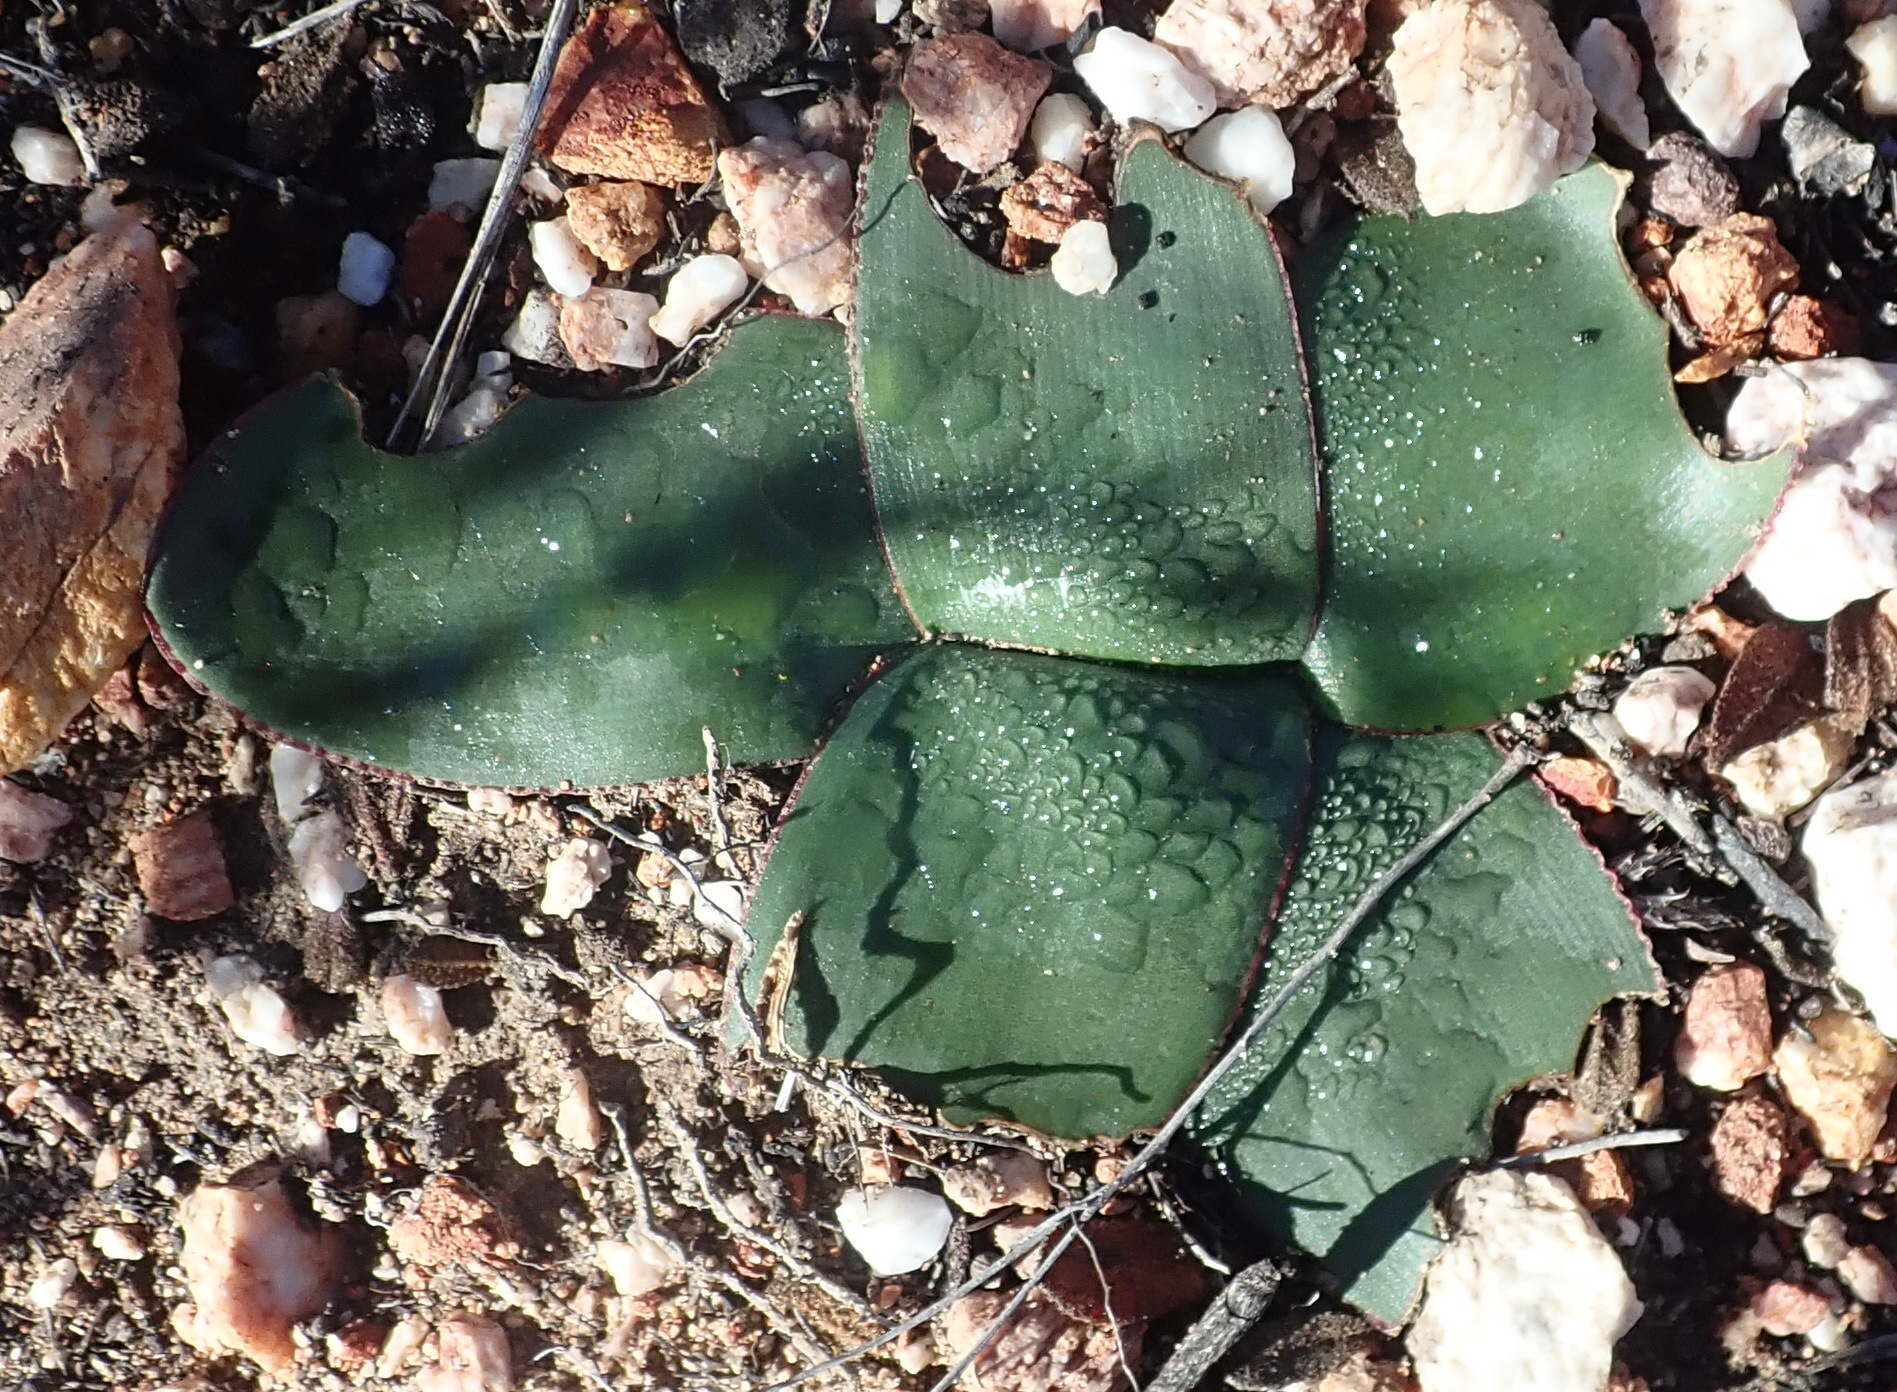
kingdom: Plantae
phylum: Tracheophyta
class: Liliopsida
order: Asparagales
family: Amaryllidaceae
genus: Brunsvigia
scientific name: Brunsvigia nervosa
